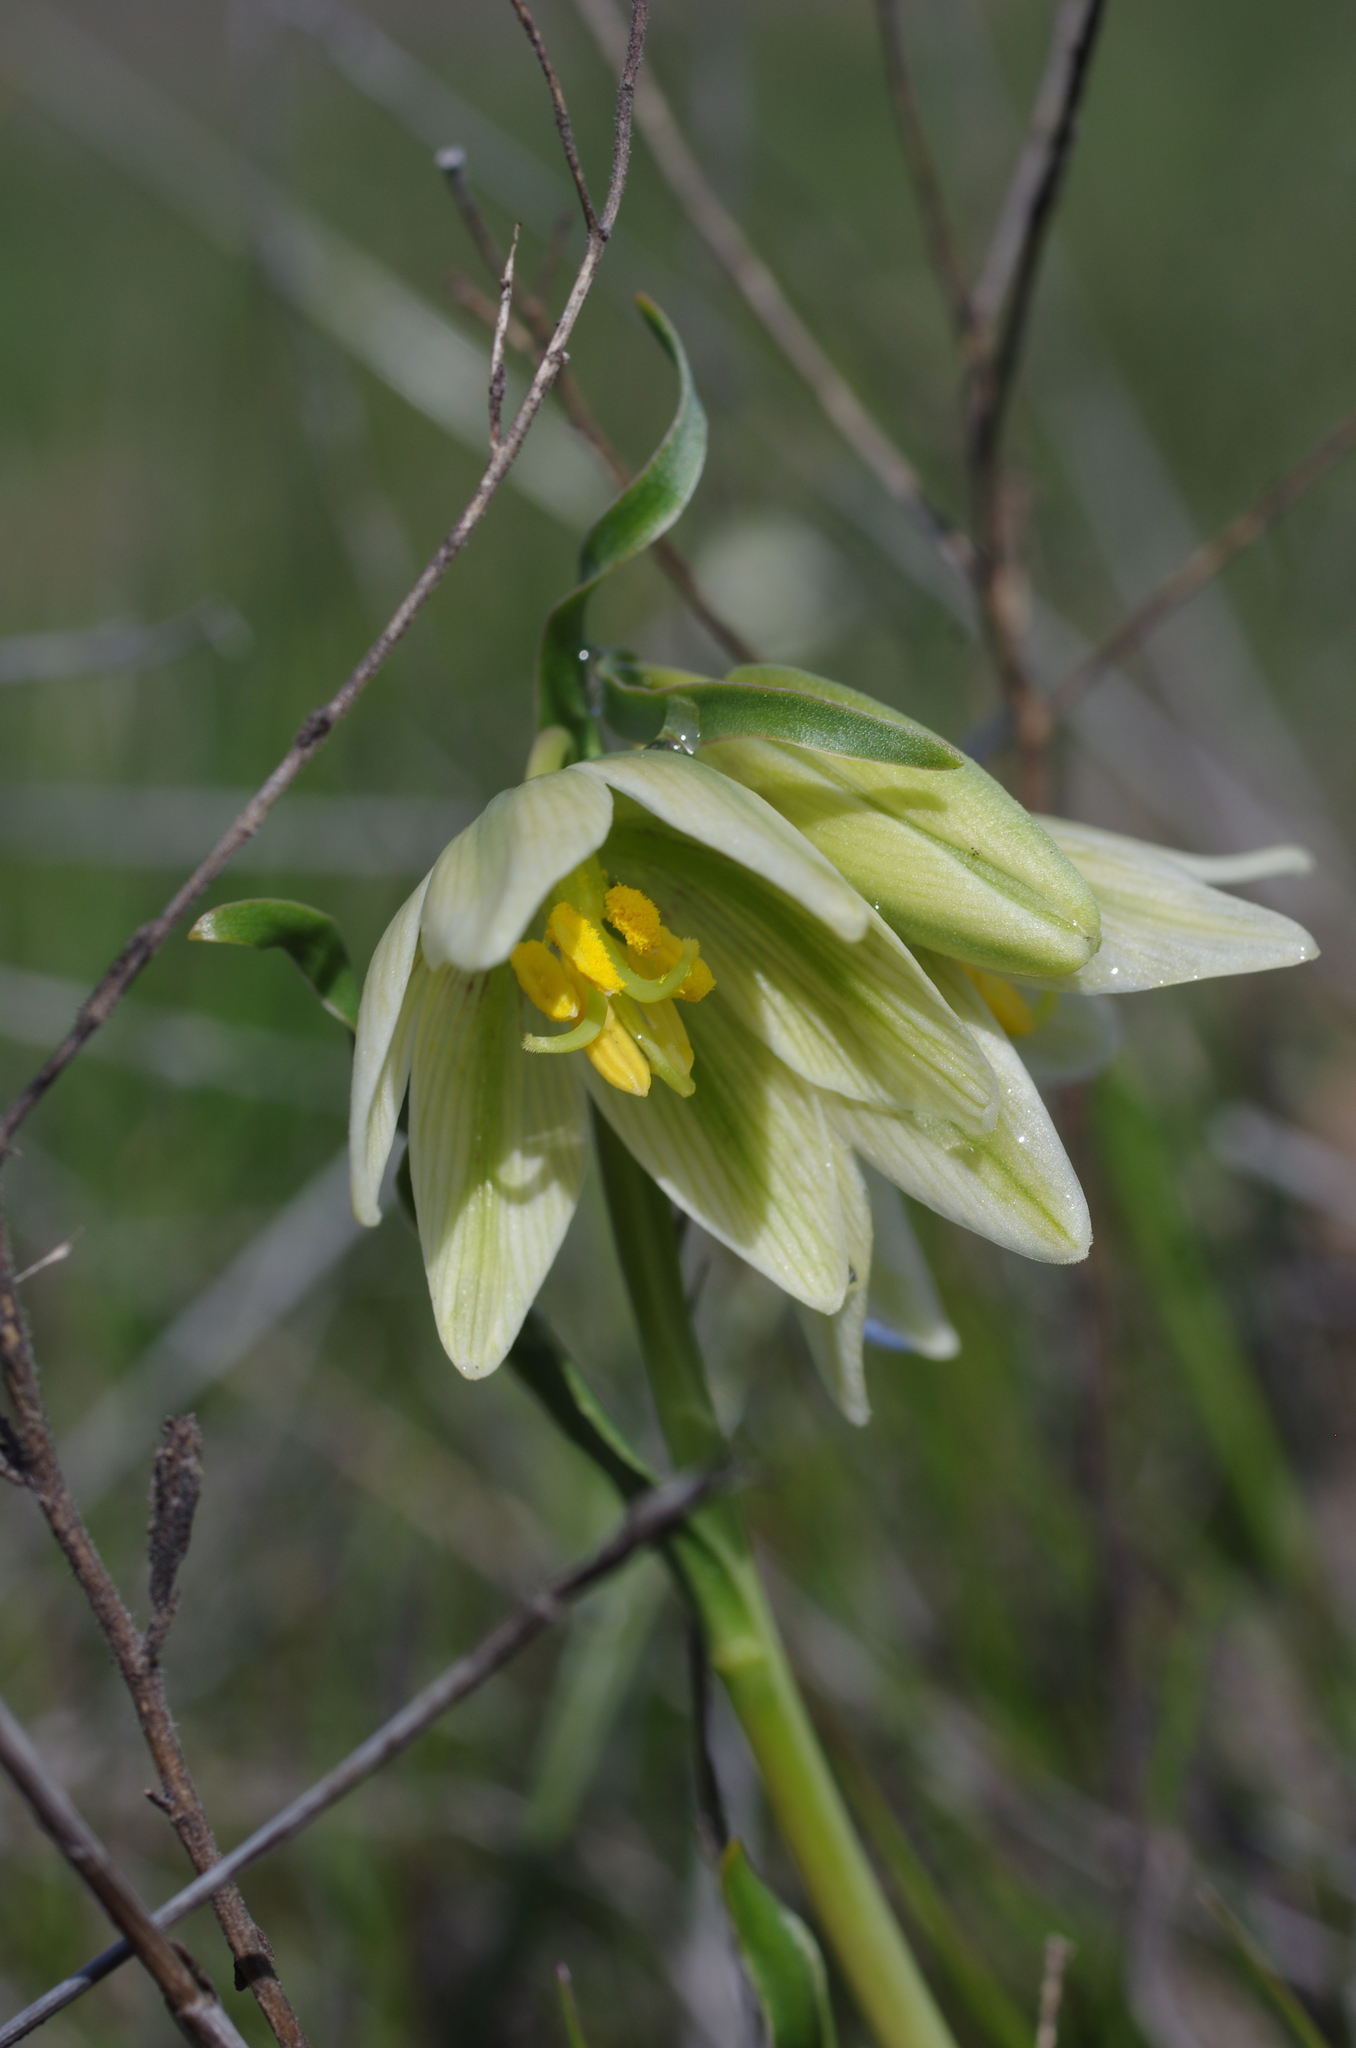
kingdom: Plantae
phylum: Tracheophyta
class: Liliopsida
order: Liliales
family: Liliaceae
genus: Fritillaria
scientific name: Fritillaria liliacea
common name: Fragrant fritillary
